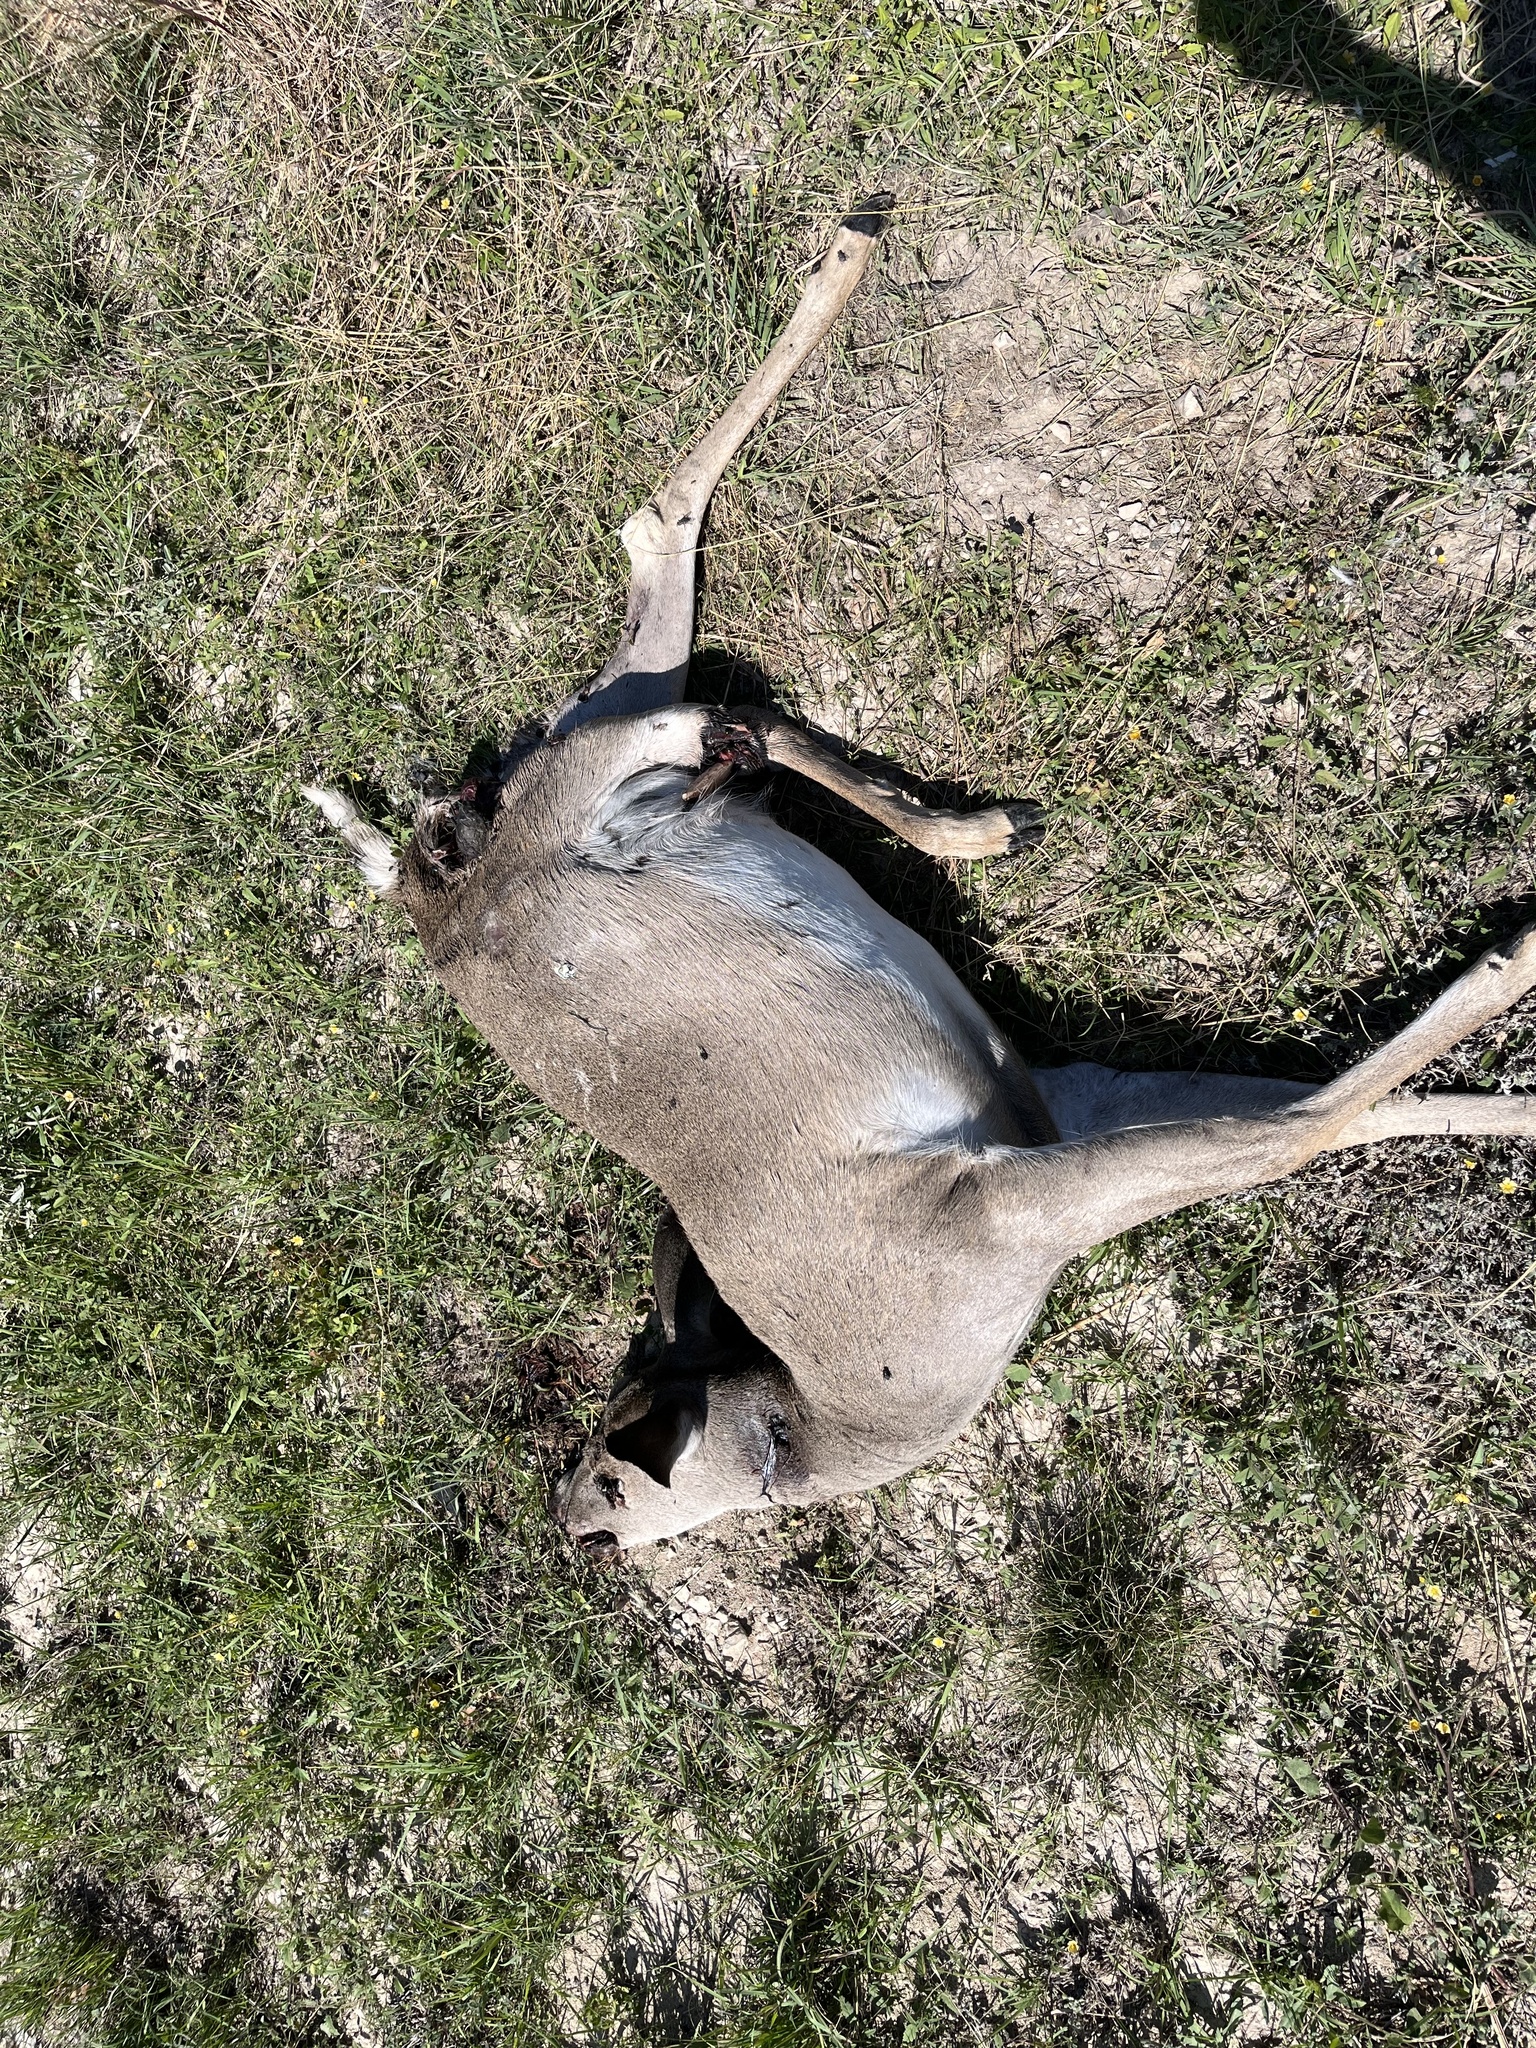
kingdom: Animalia
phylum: Chordata
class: Mammalia
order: Artiodactyla
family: Cervidae
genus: Odocoileus
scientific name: Odocoileus virginianus
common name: White-tailed deer
